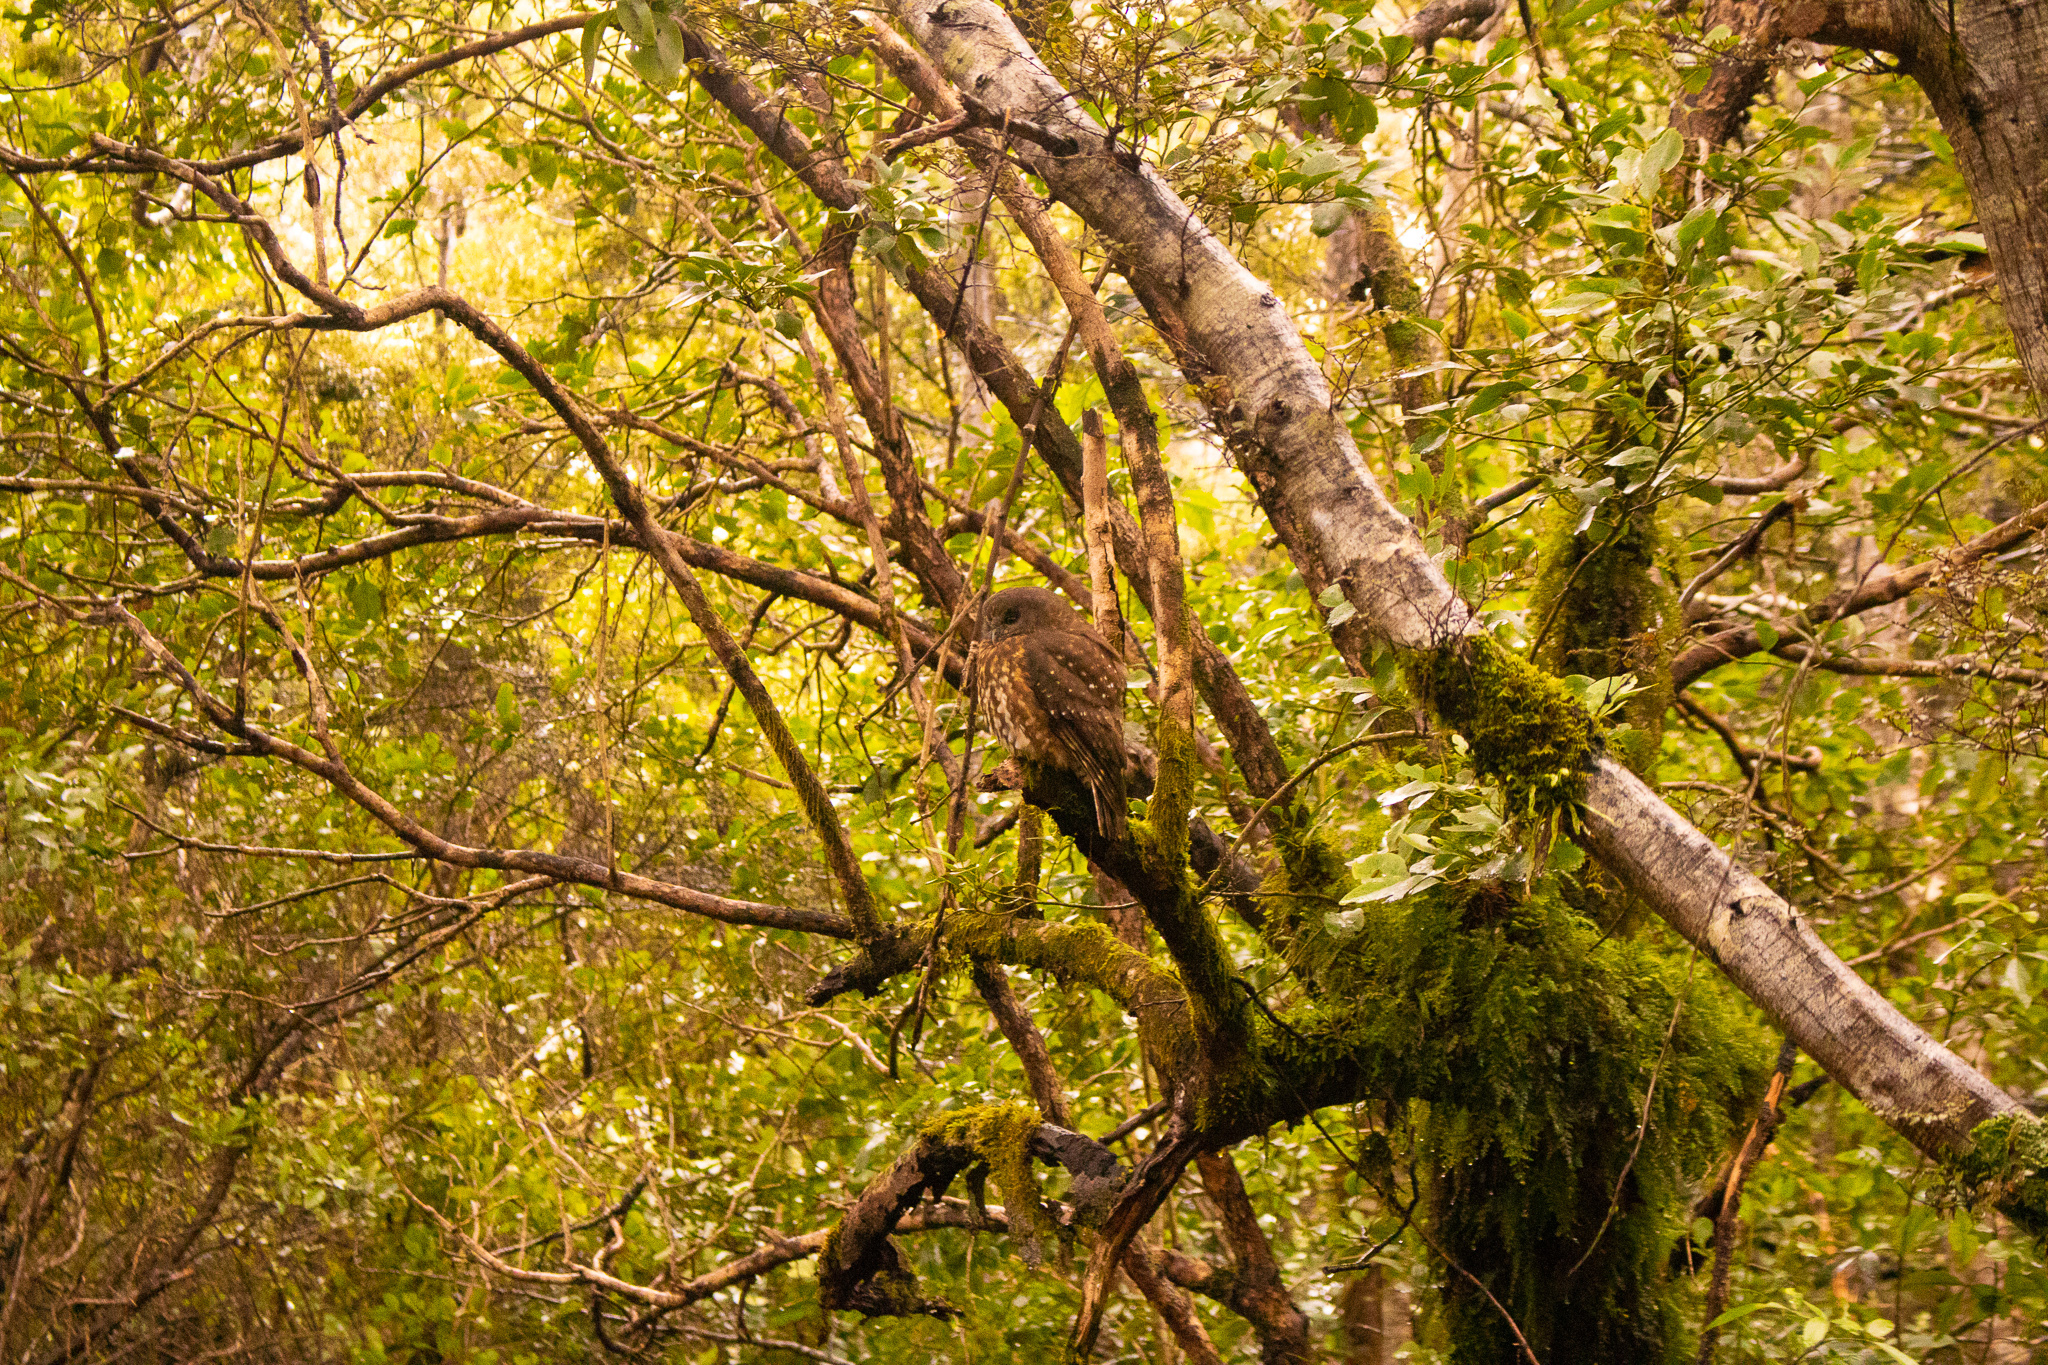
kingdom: Animalia
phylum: Chordata
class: Aves
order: Strigiformes
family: Strigidae
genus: Ninox
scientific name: Ninox novaeseelandiae
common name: Morepork
